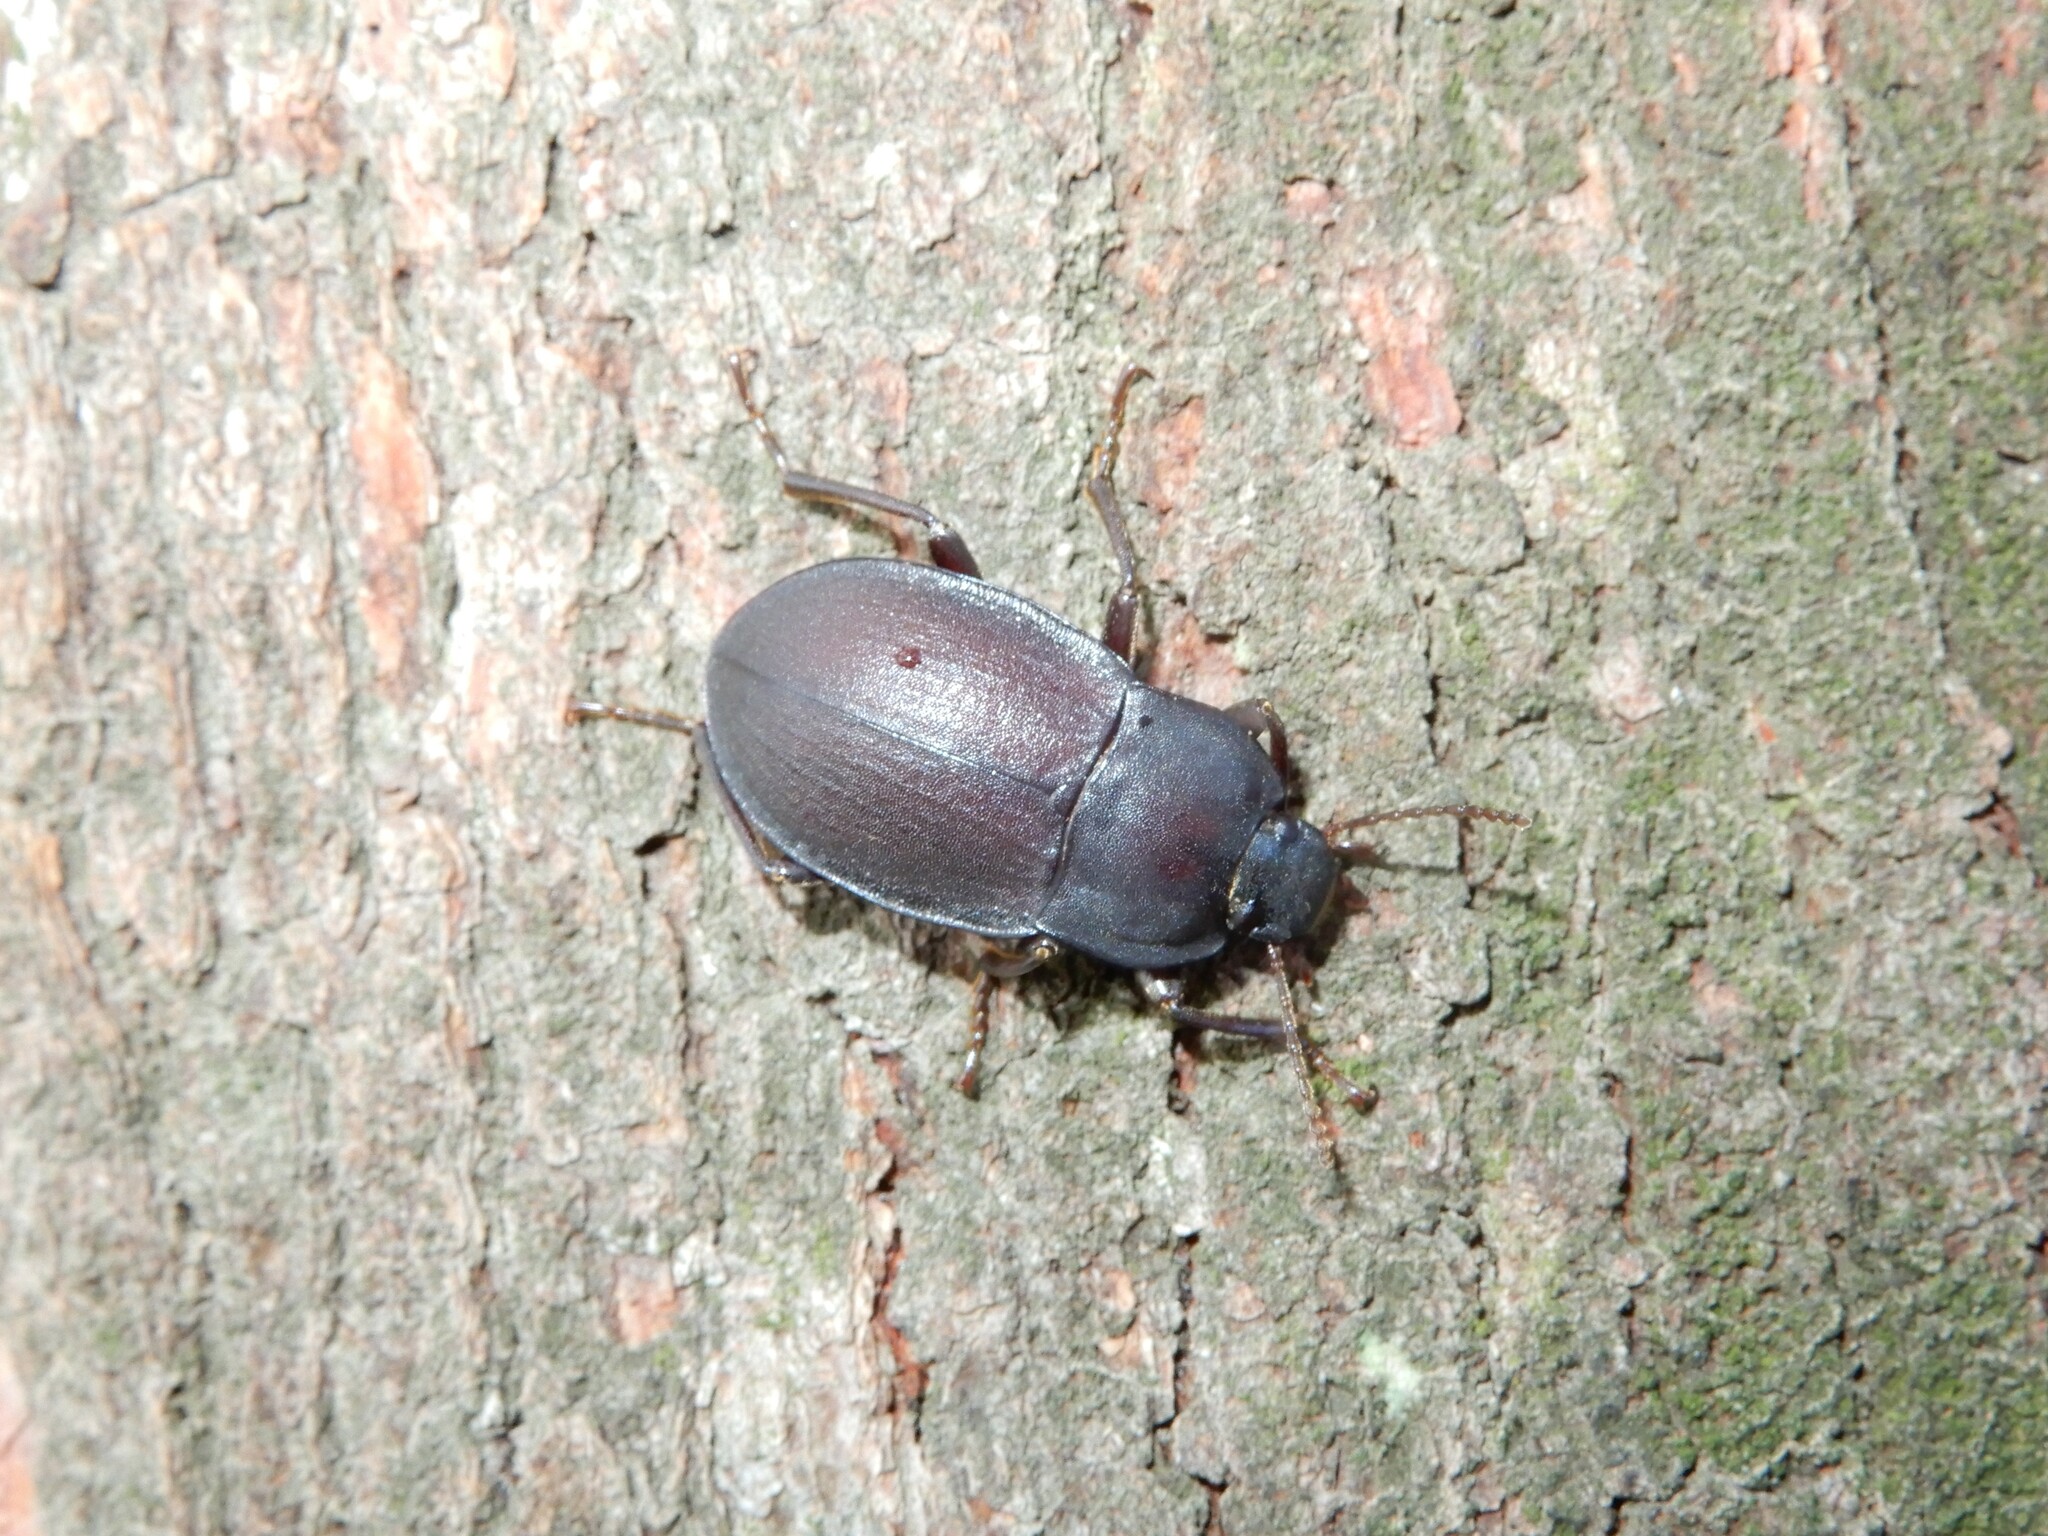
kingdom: Animalia
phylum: Arthropoda
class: Insecta
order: Coleoptera
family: Tenebrionidae
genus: Mimopeus
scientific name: Mimopeus
